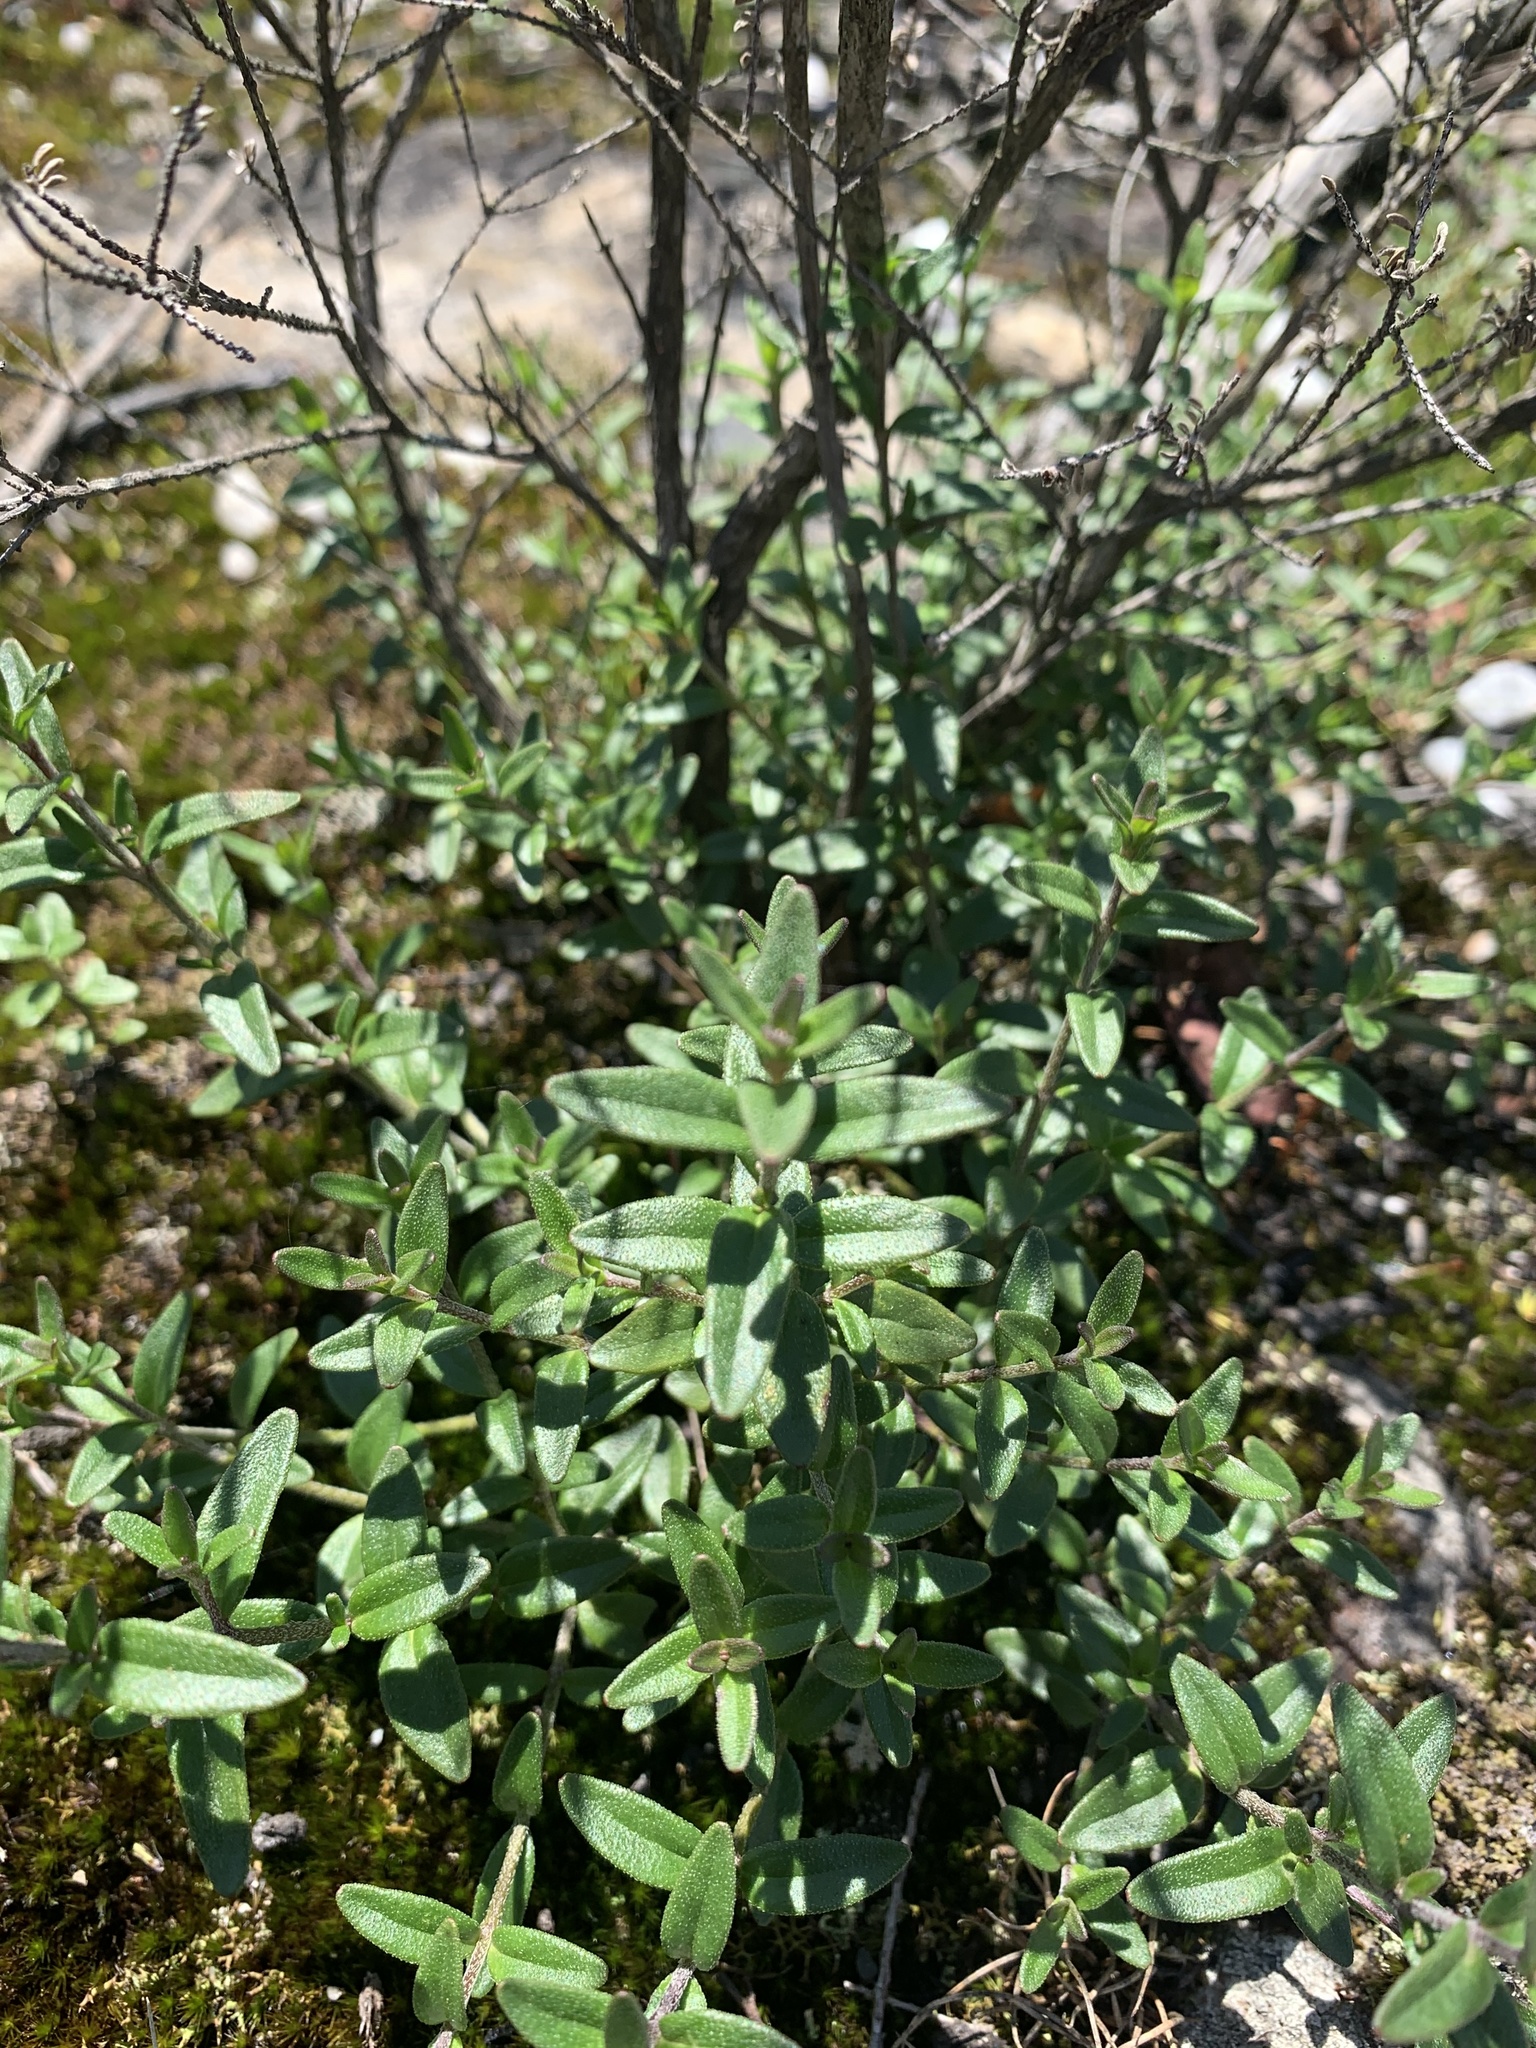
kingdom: Plantae
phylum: Tracheophyta
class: Magnoliopsida
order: Lamiales
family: Lamiaceae
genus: Prostanthera
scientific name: Prostanthera saxicola
